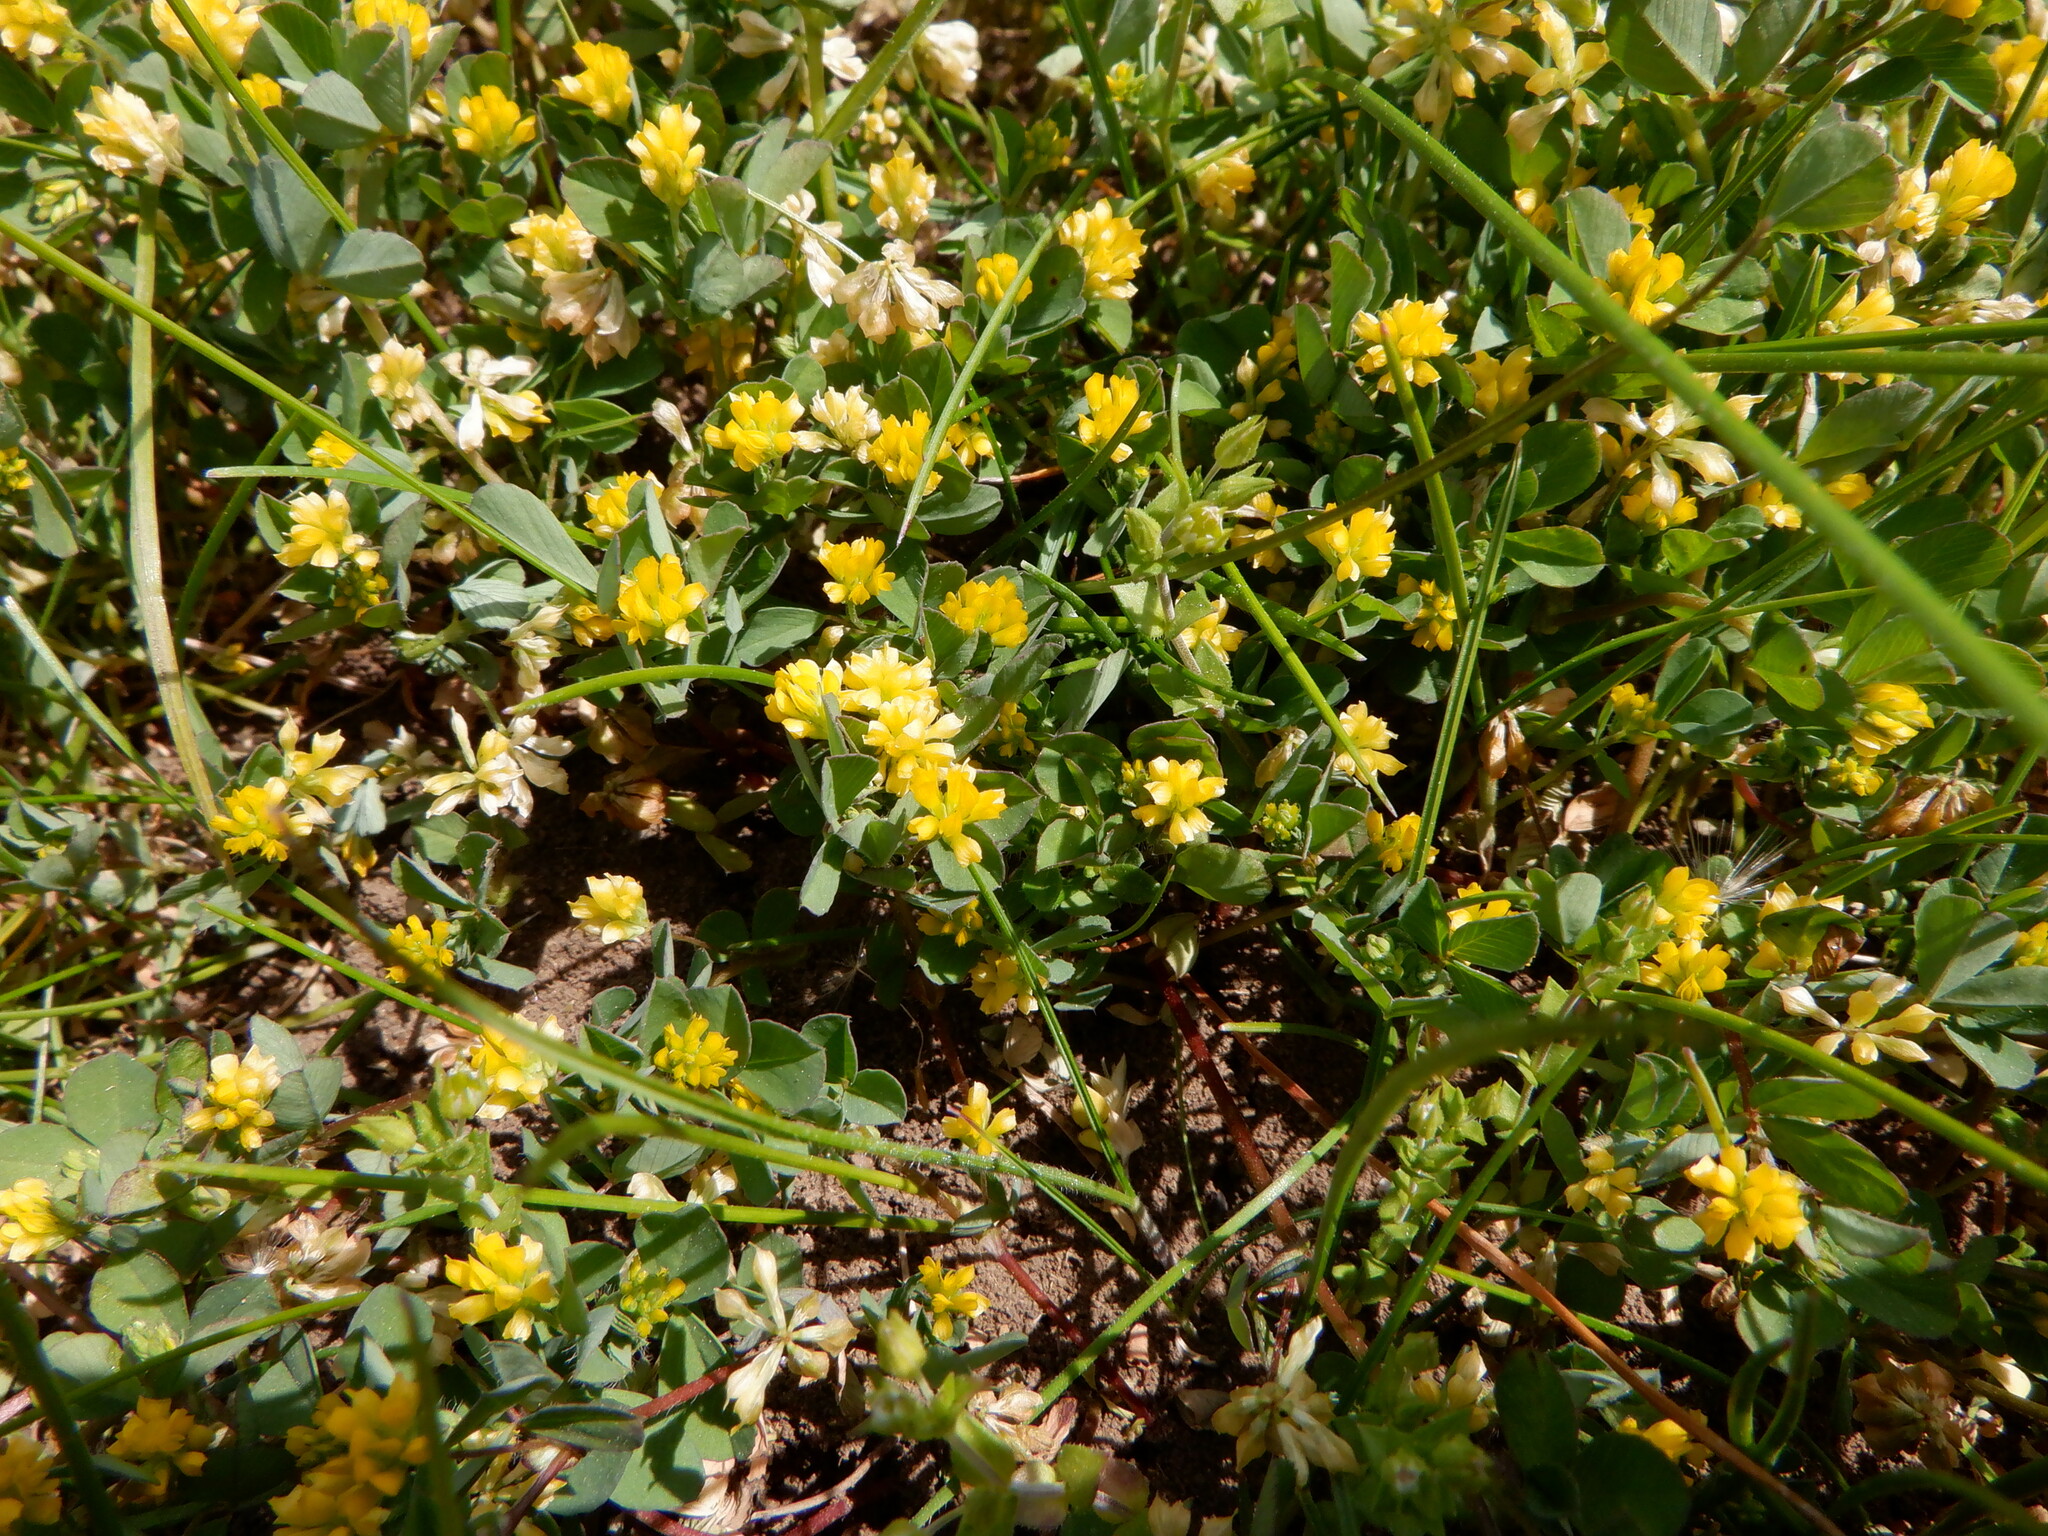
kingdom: Plantae
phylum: Tracheophyta
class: Magnoliopsida
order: Fabales
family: Fabaceae
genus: Trifolium
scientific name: Trifolium dubium
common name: Suckling clover
